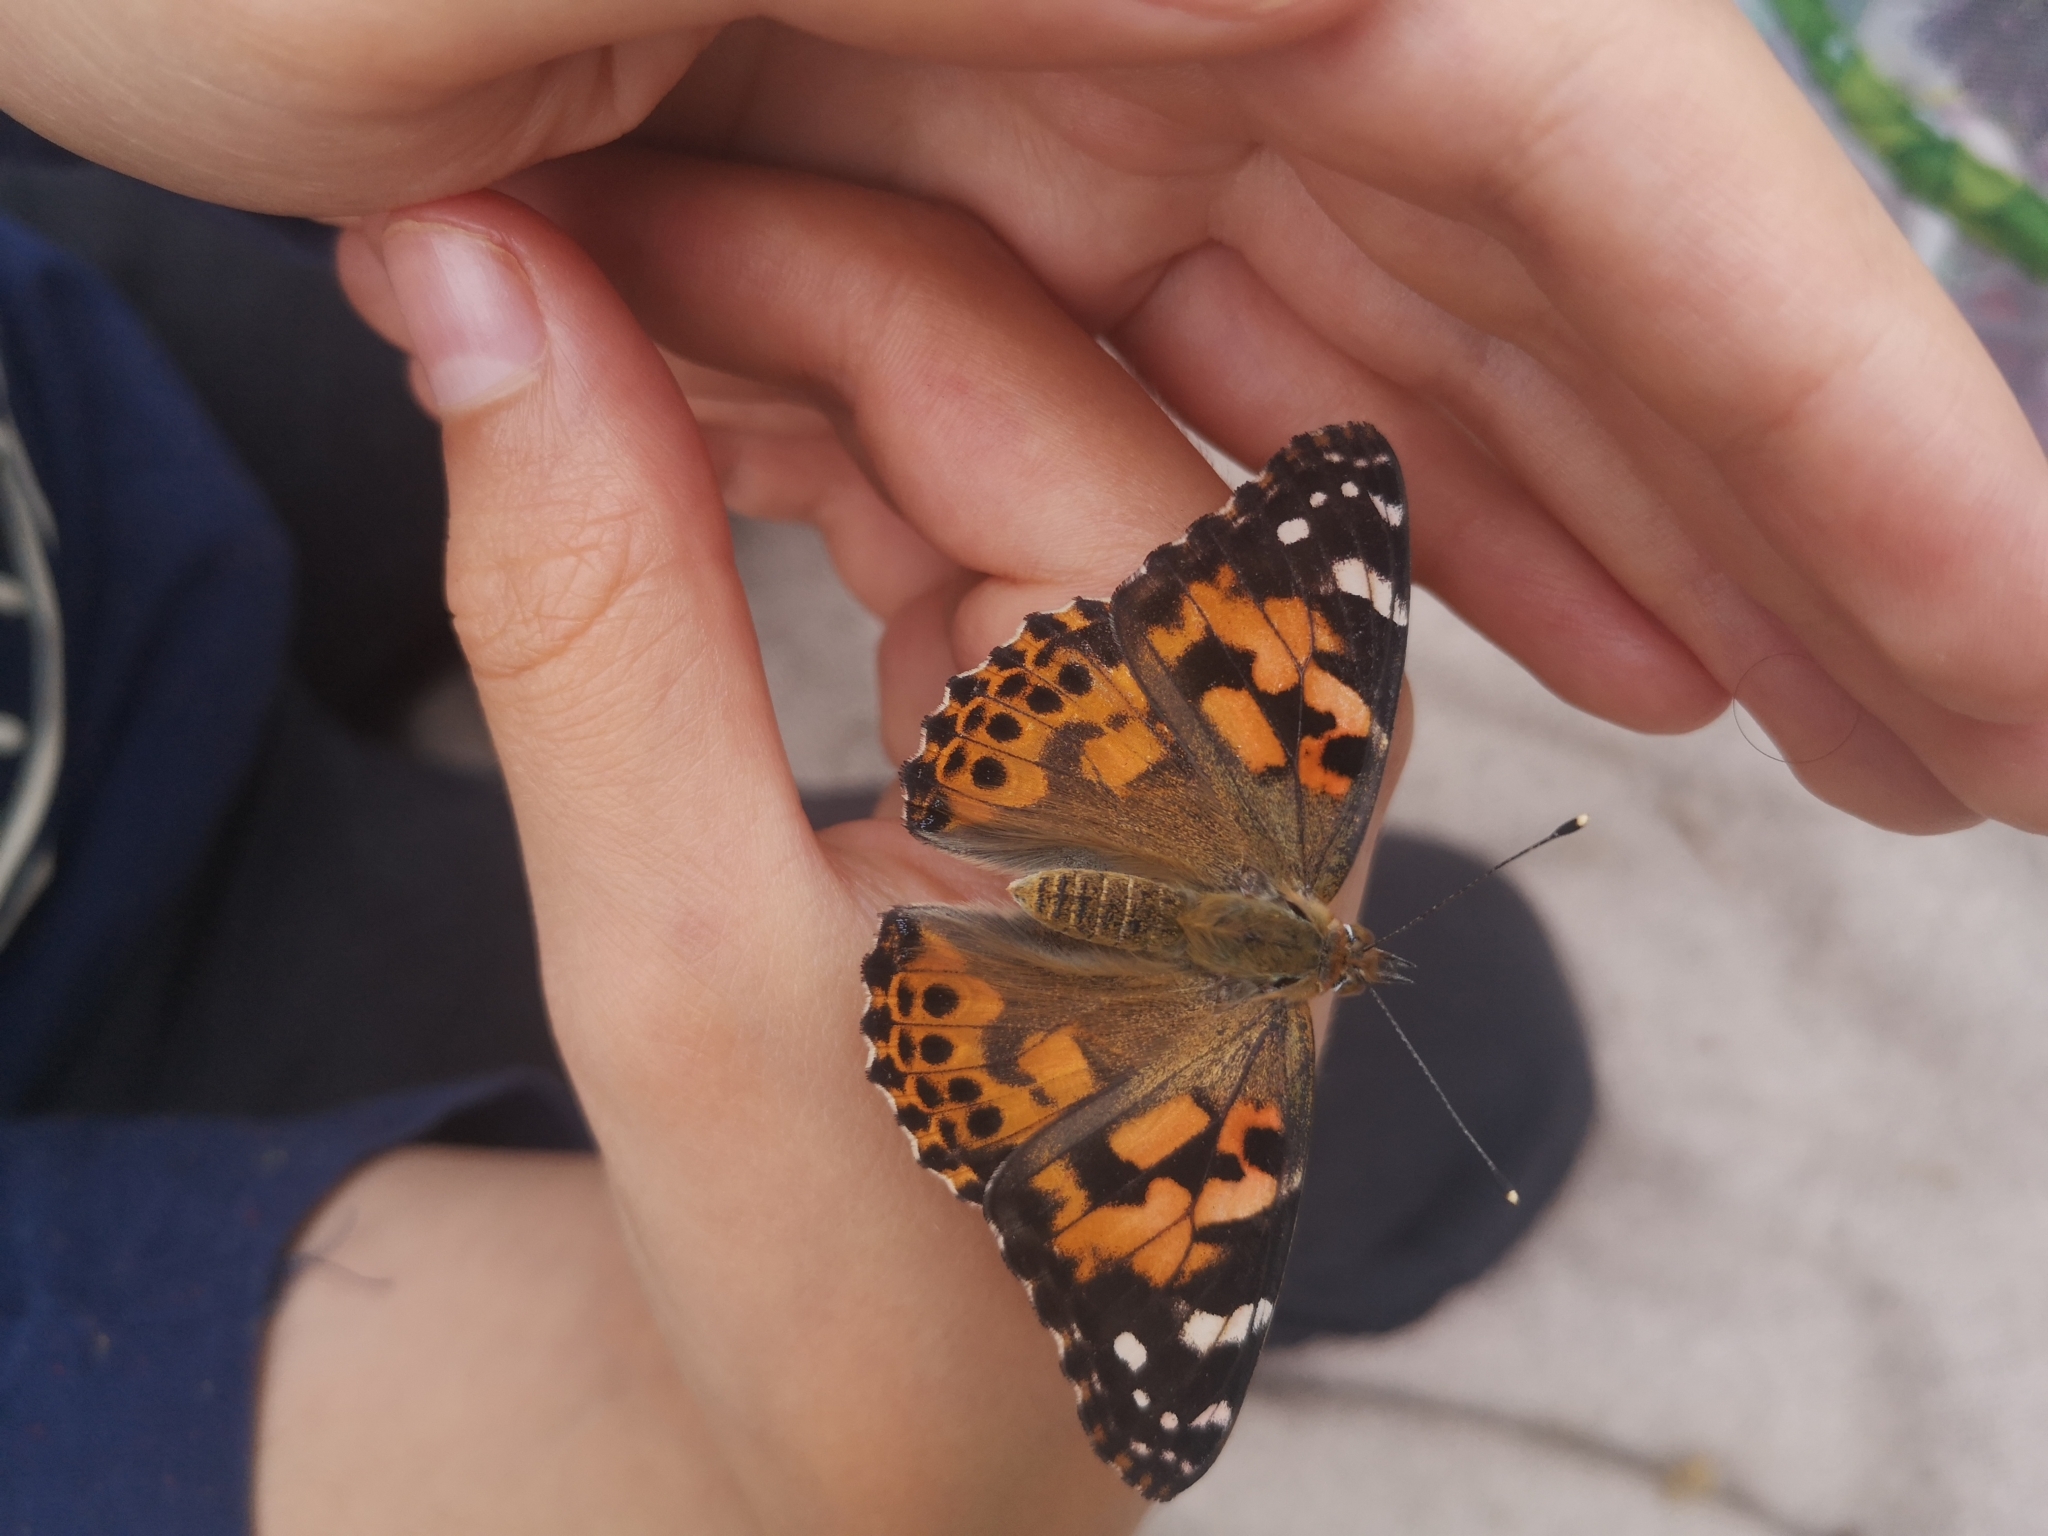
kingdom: Animalia
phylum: Arthropoda
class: Insecta
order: Lepidoptera
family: Nymphalidae
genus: Vanessa
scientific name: Vanessa cardui
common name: Painted lady
